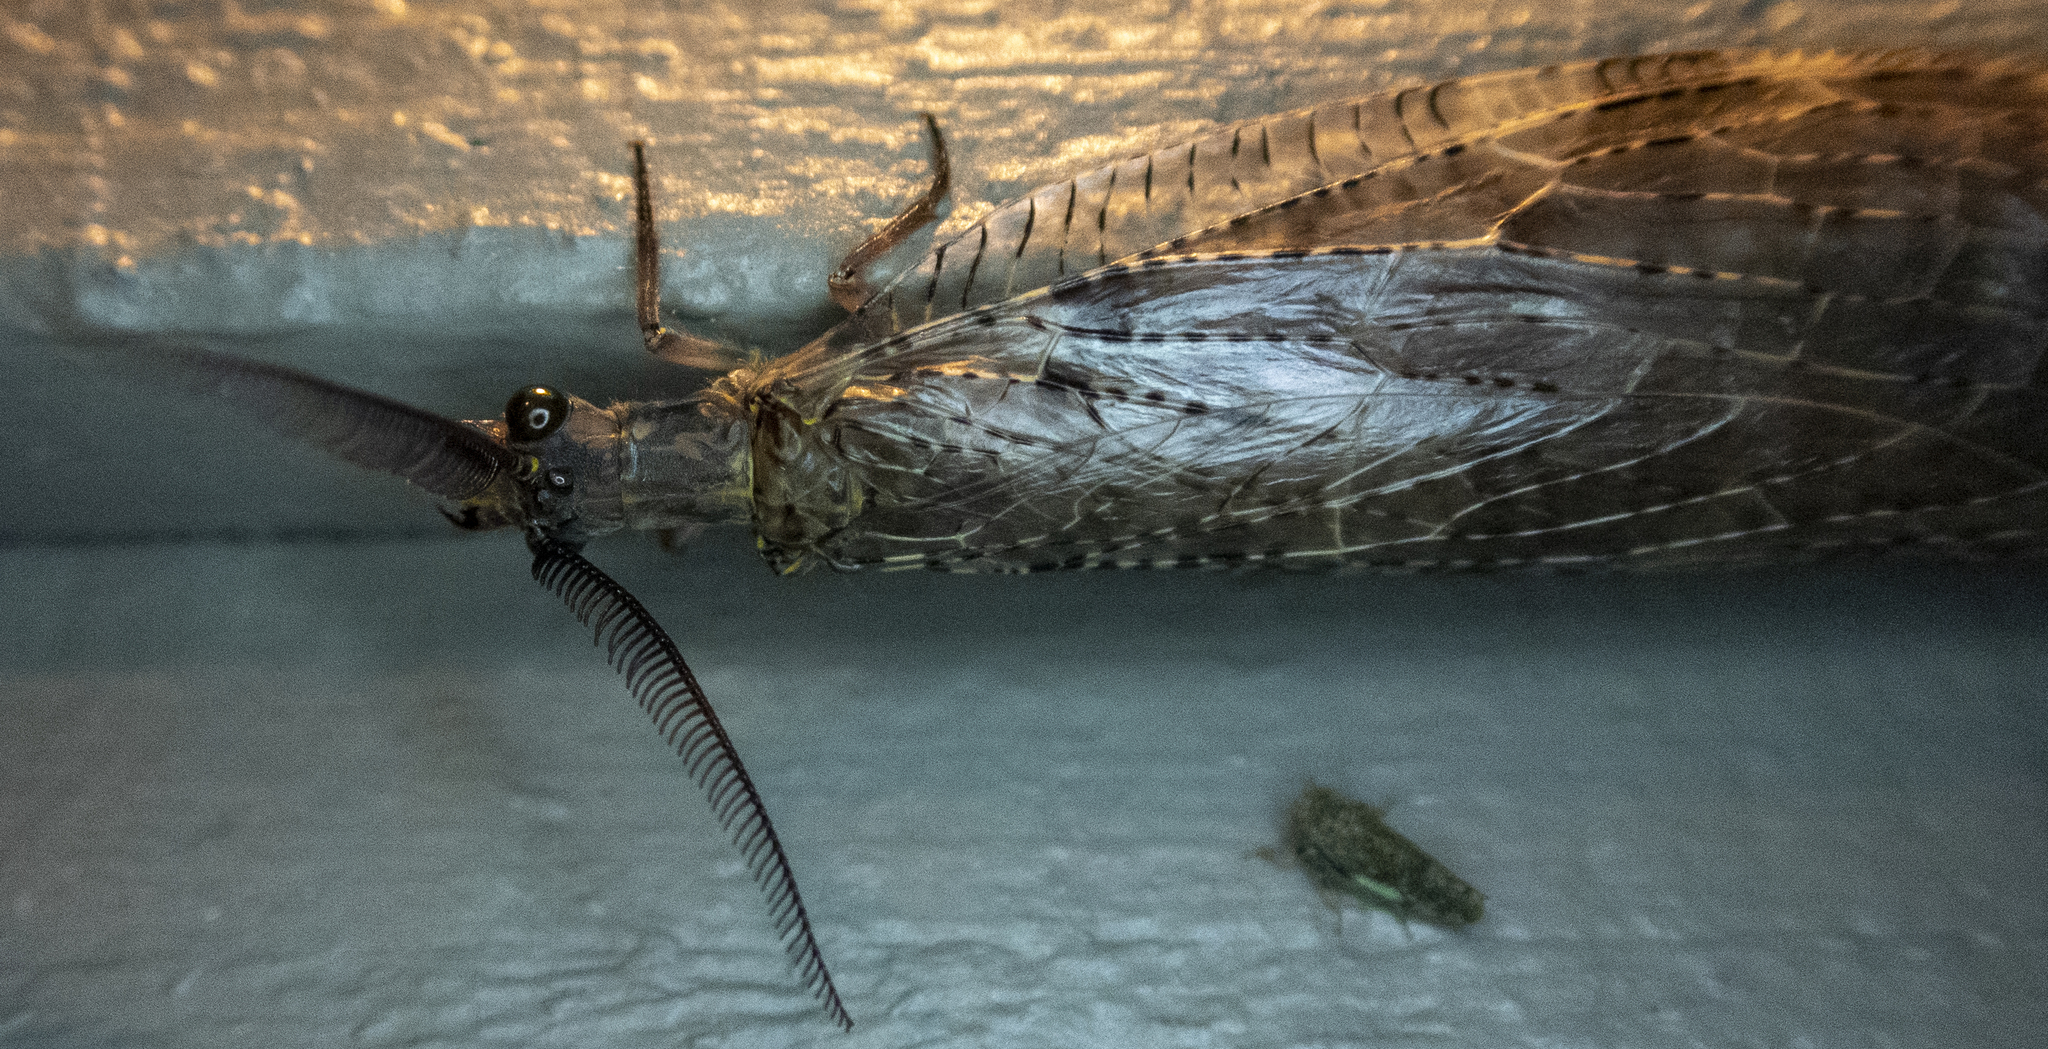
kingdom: Animalia
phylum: Arthropoda
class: Insecta
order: Megaloptera
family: Corydalidae
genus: Chauliodes
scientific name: Chauliodes pectinicornis
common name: Summer fishfly
